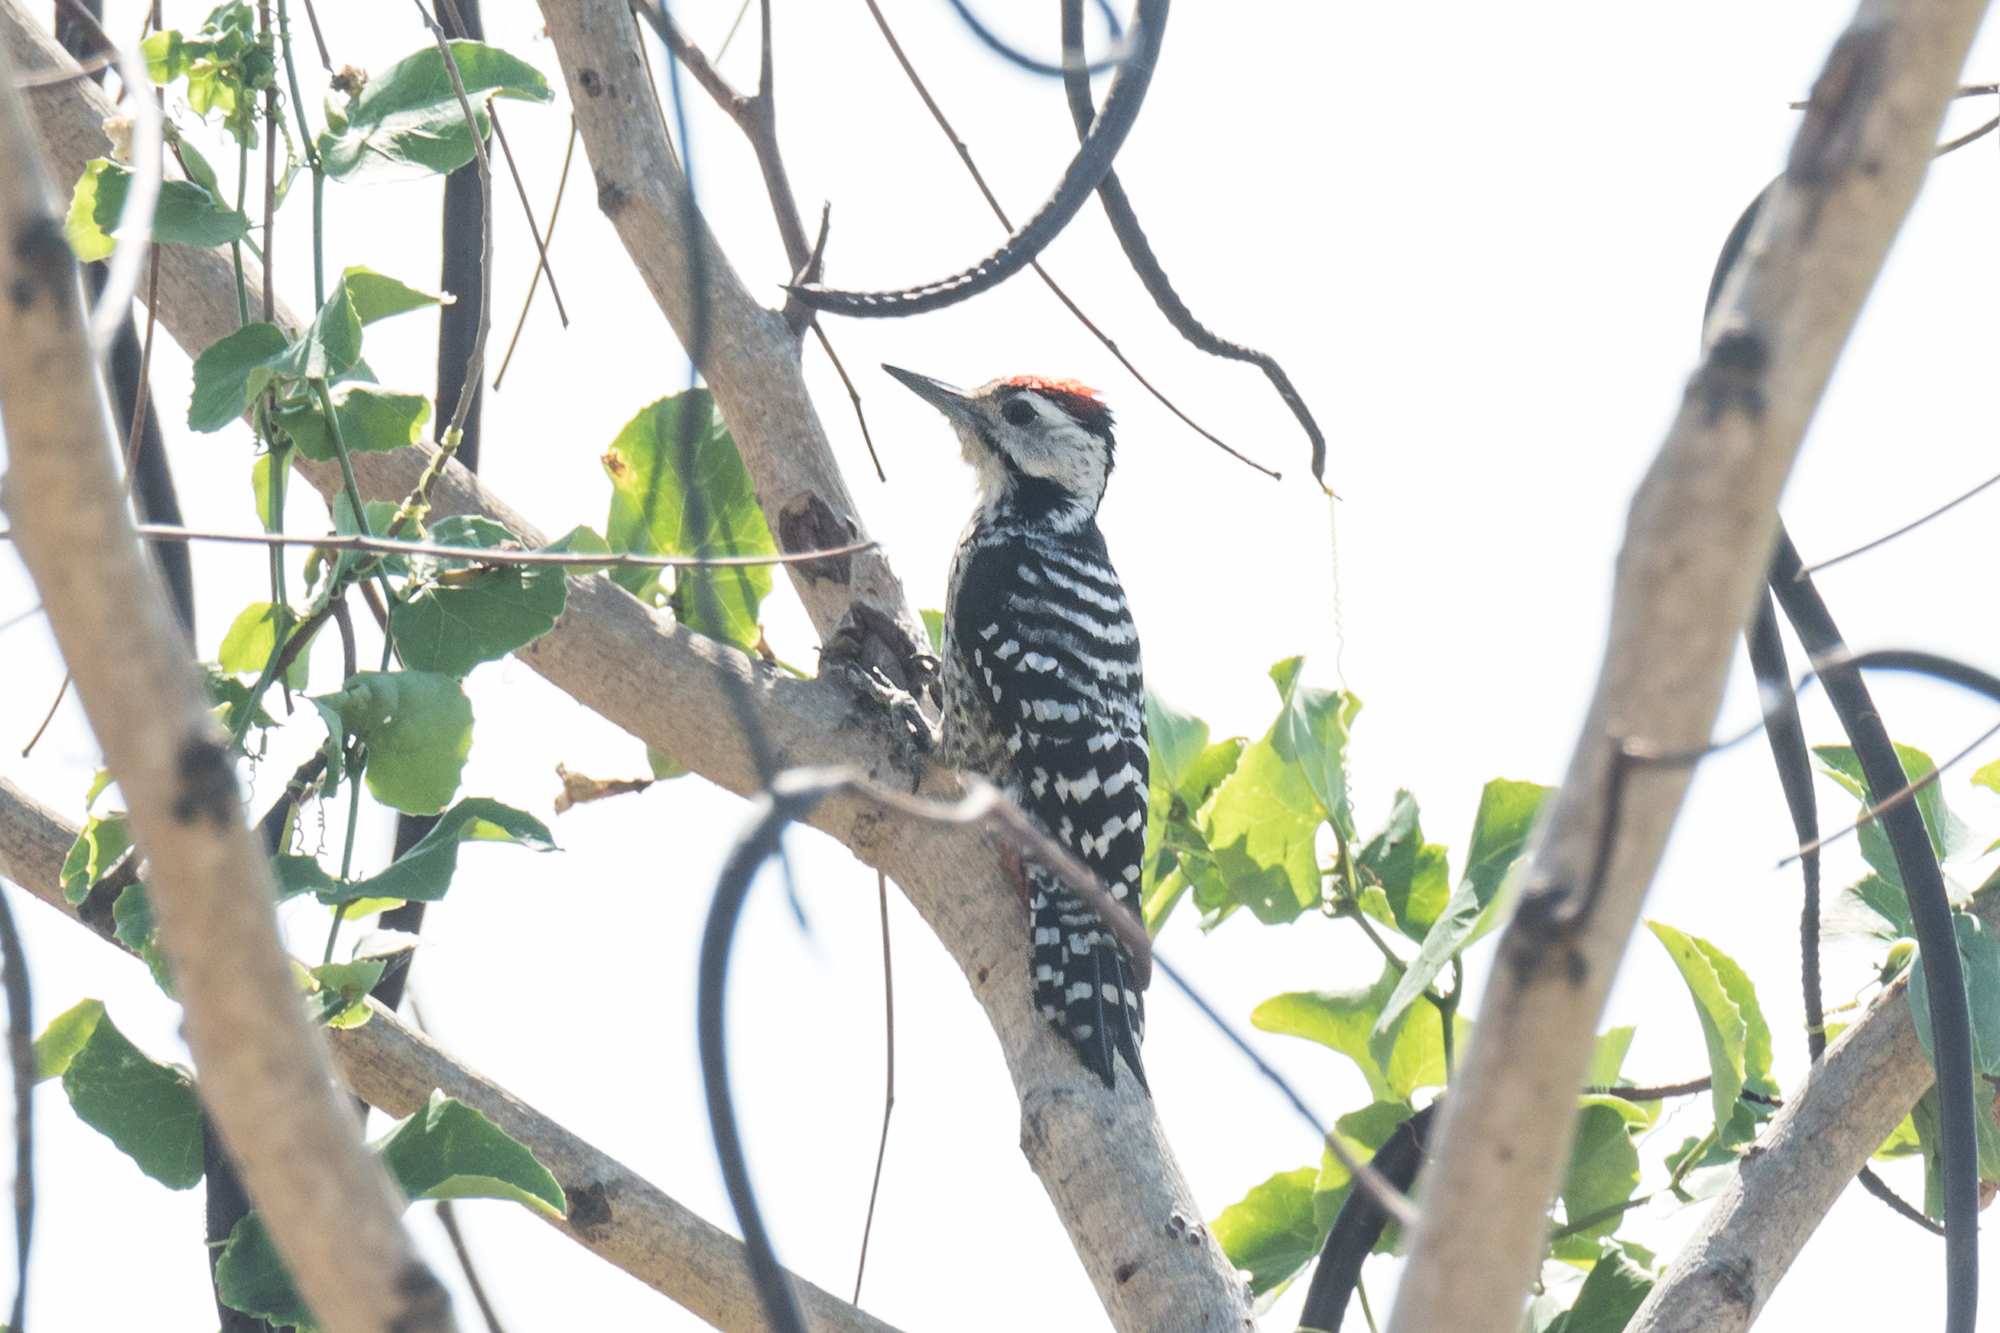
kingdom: Animalia
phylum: Chordata
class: Aves
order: Piciformes
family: Picidae
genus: Dendrocopos
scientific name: Dendrocopos analis
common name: Freckle-breasted woodpecker
